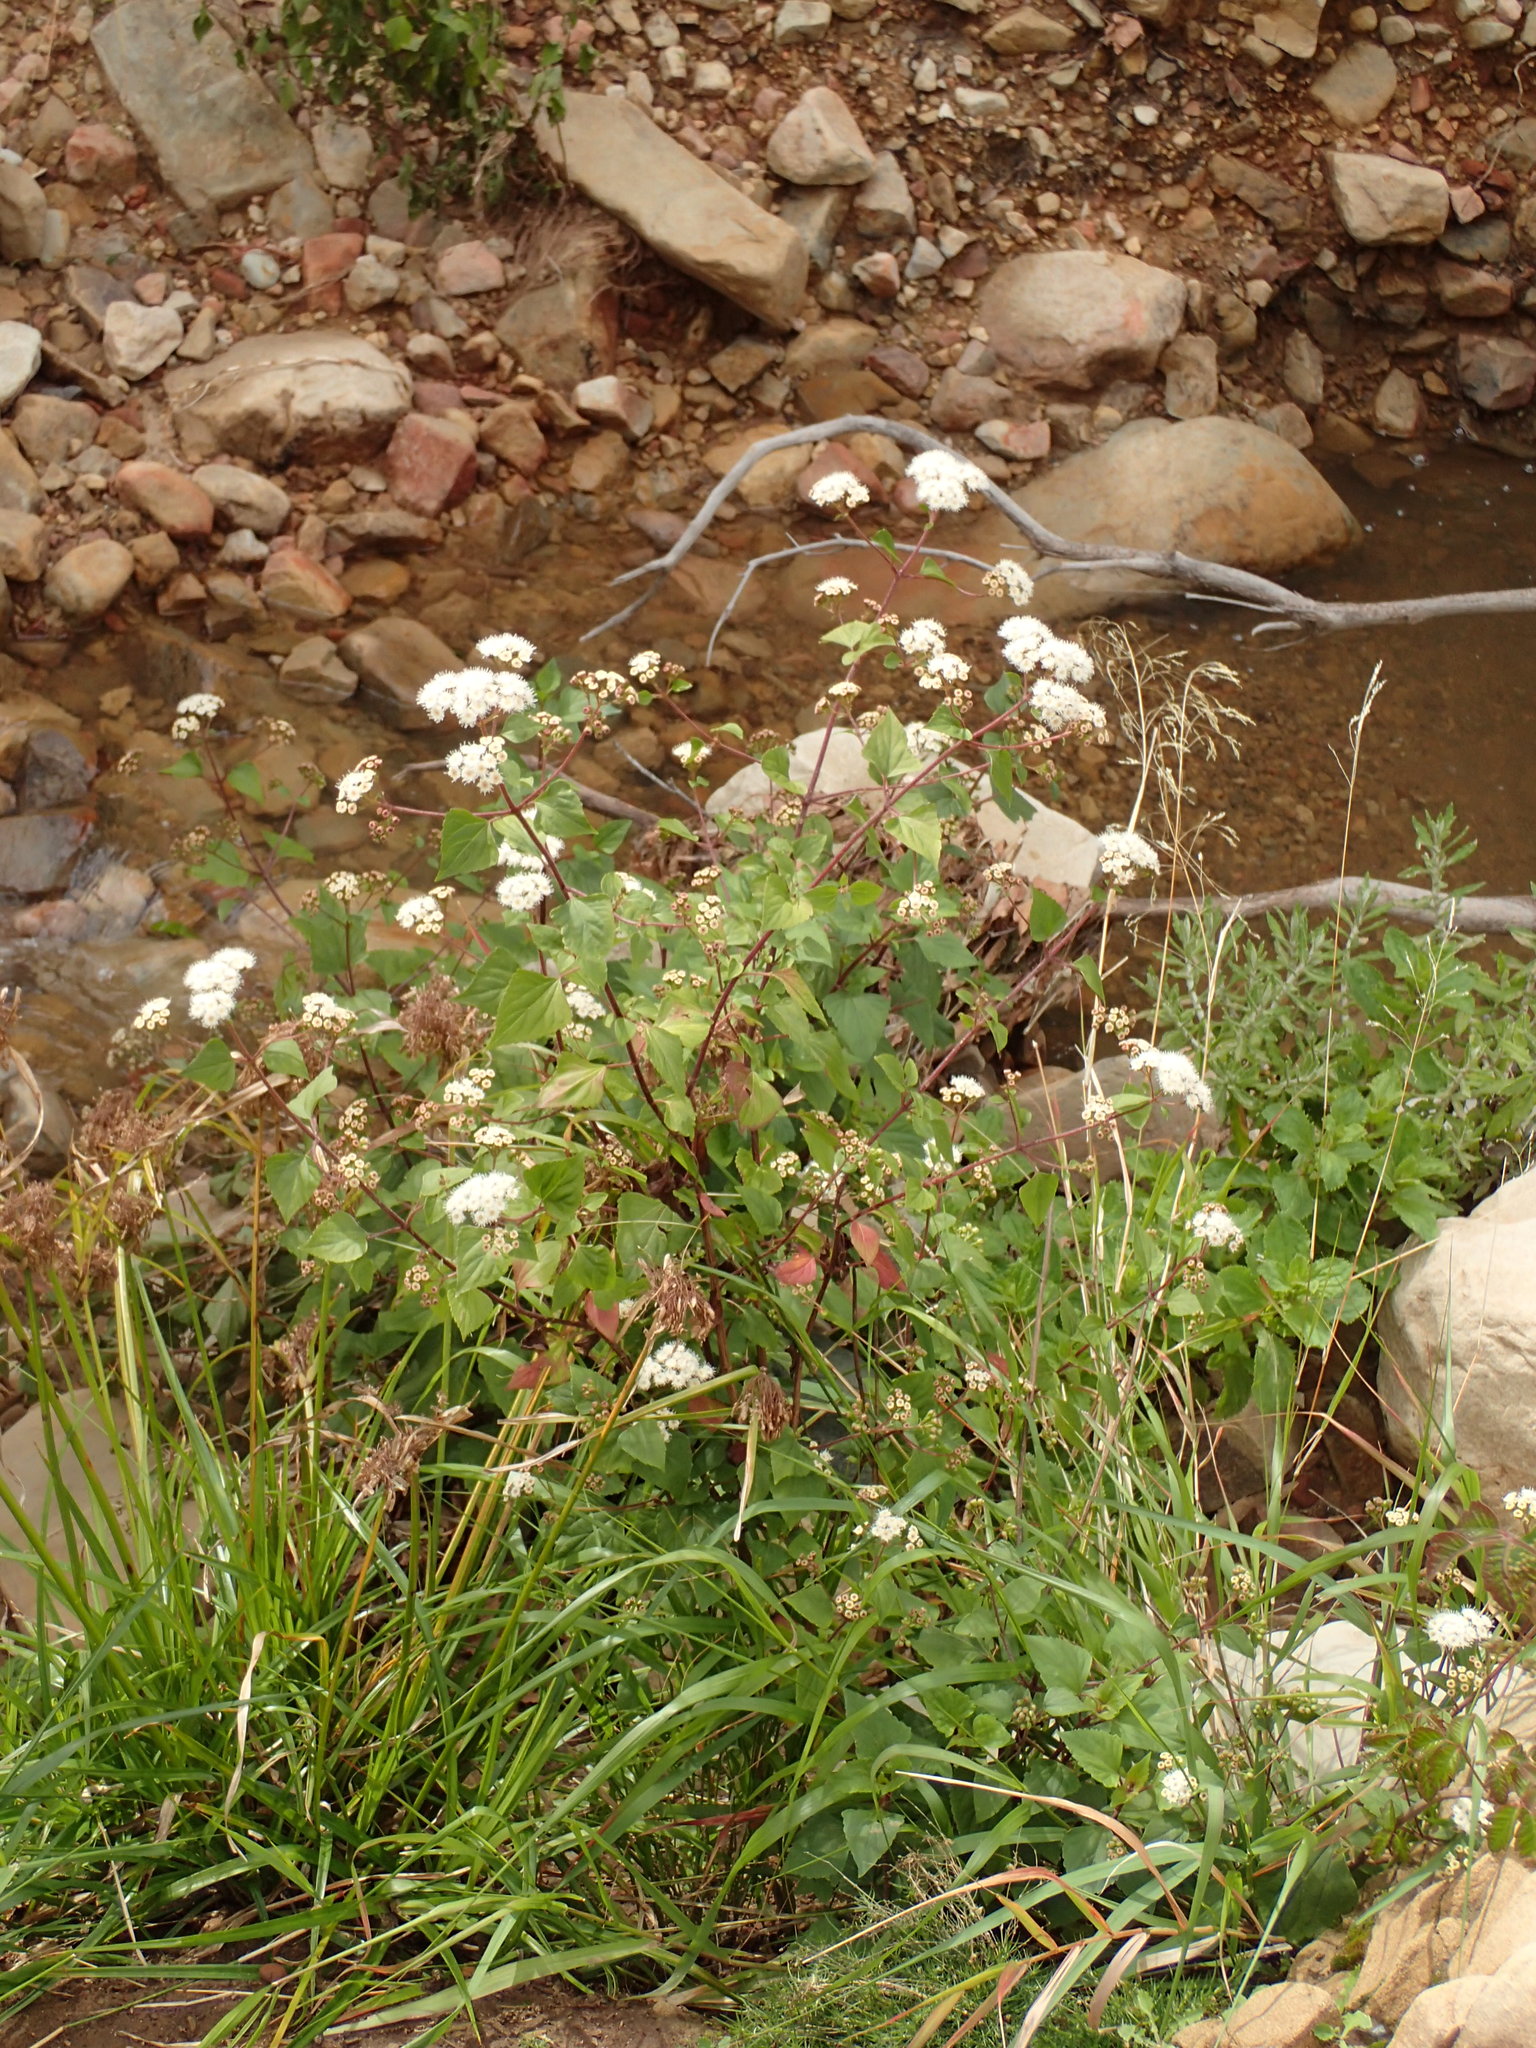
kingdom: Plantae
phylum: Tracheophyta
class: Magnoliopsida
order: Asterales
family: Asteraceae
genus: Ageratina
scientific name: Ageratina adenophora
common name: Sticky snakeroot
